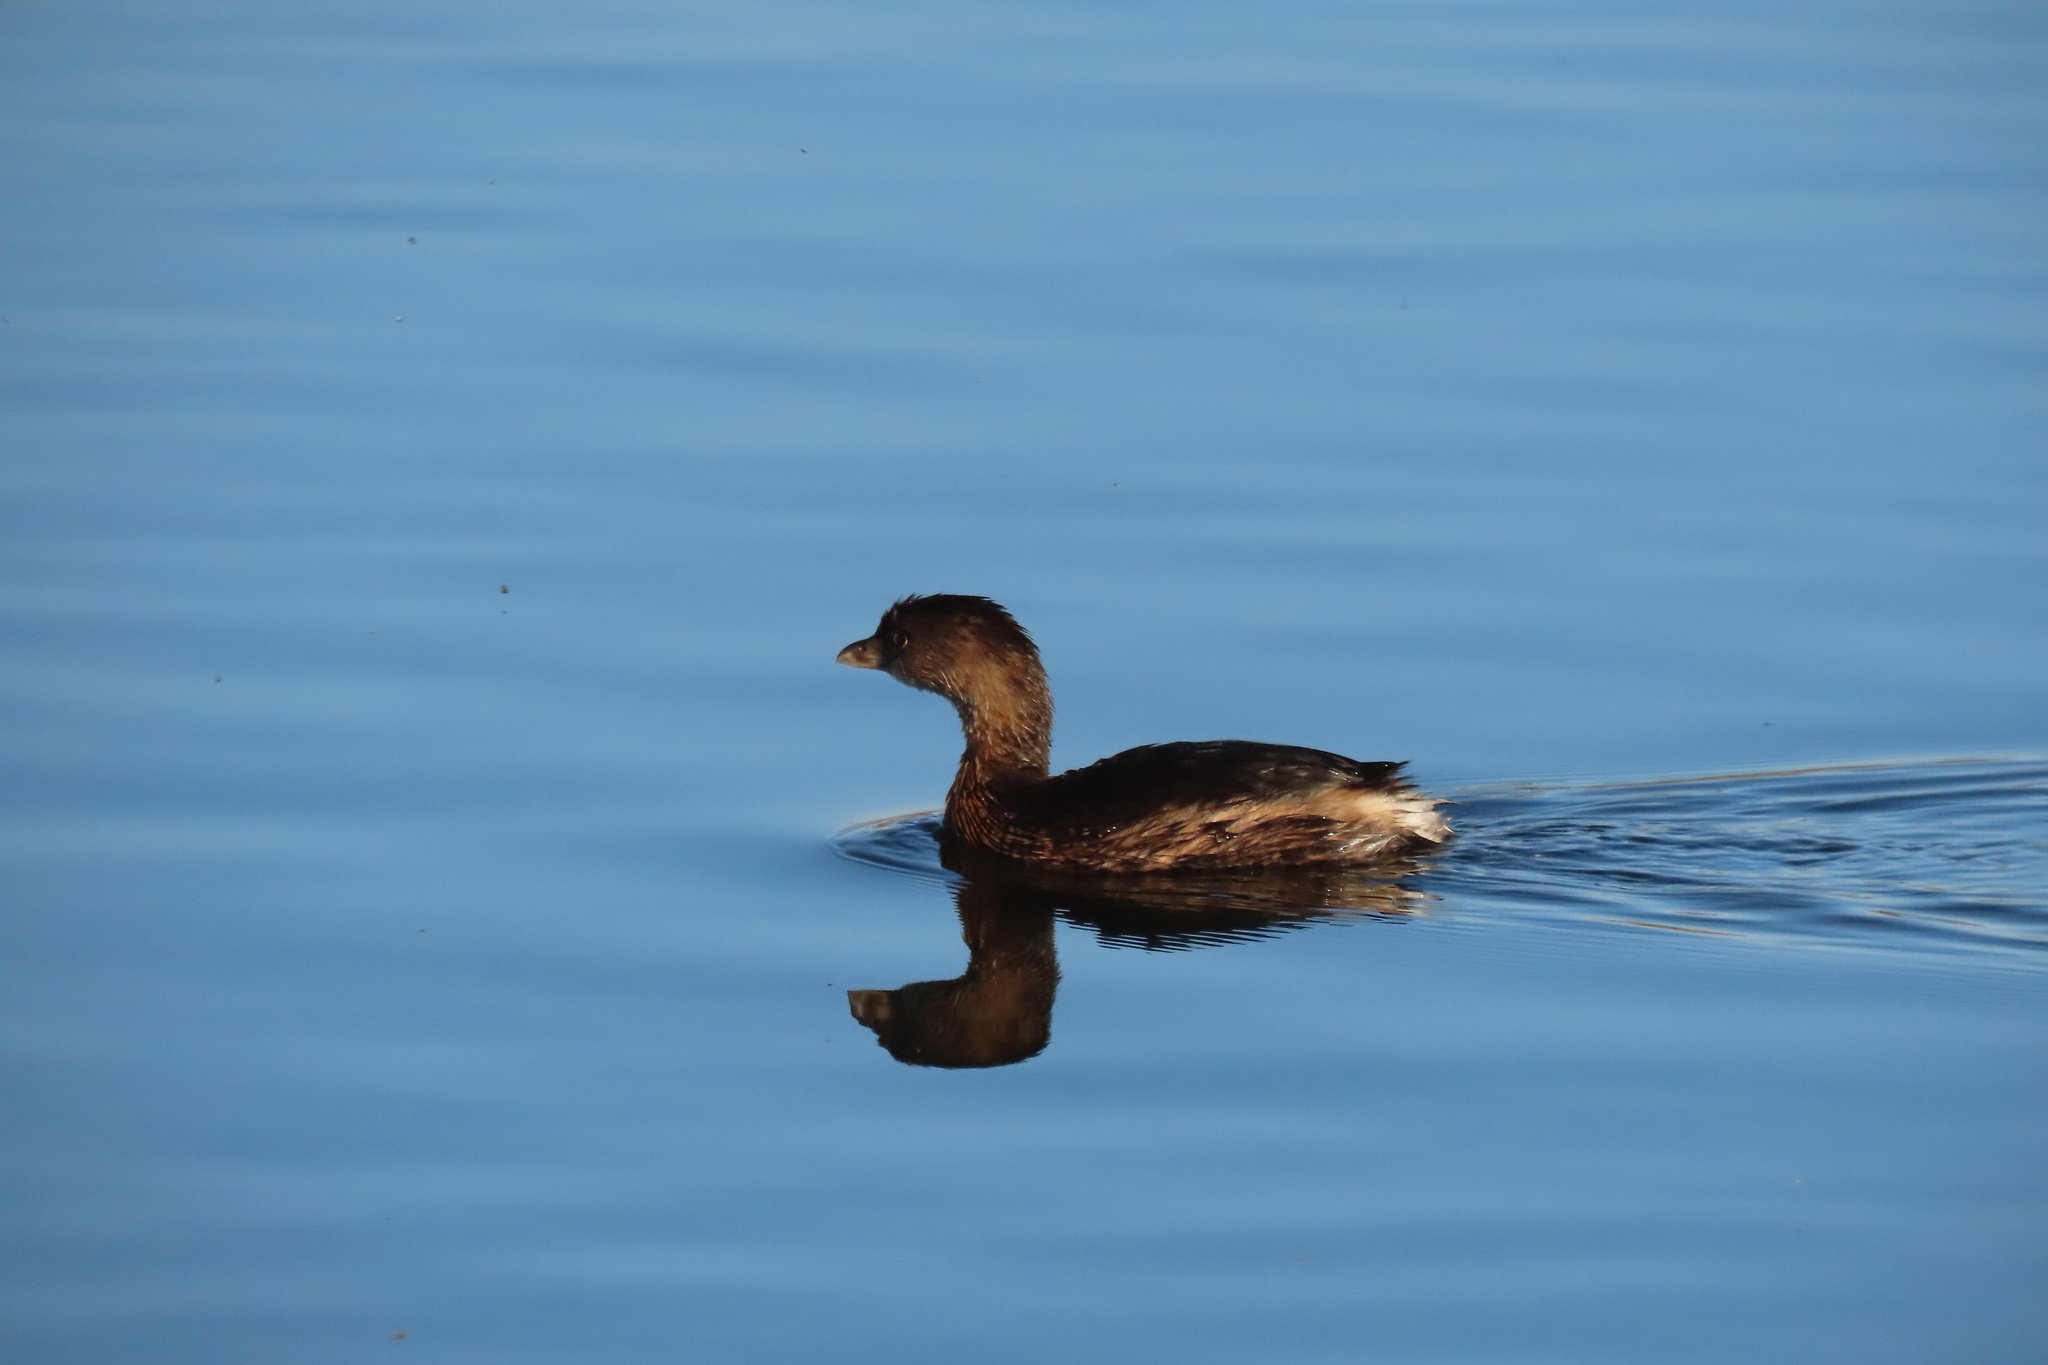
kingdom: Animalia
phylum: Chordata
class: Aves
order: Podicipediformes
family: Podicipedidae
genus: Podilymbus
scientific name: Podilymbus podiceps
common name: Pied-billed grebe
